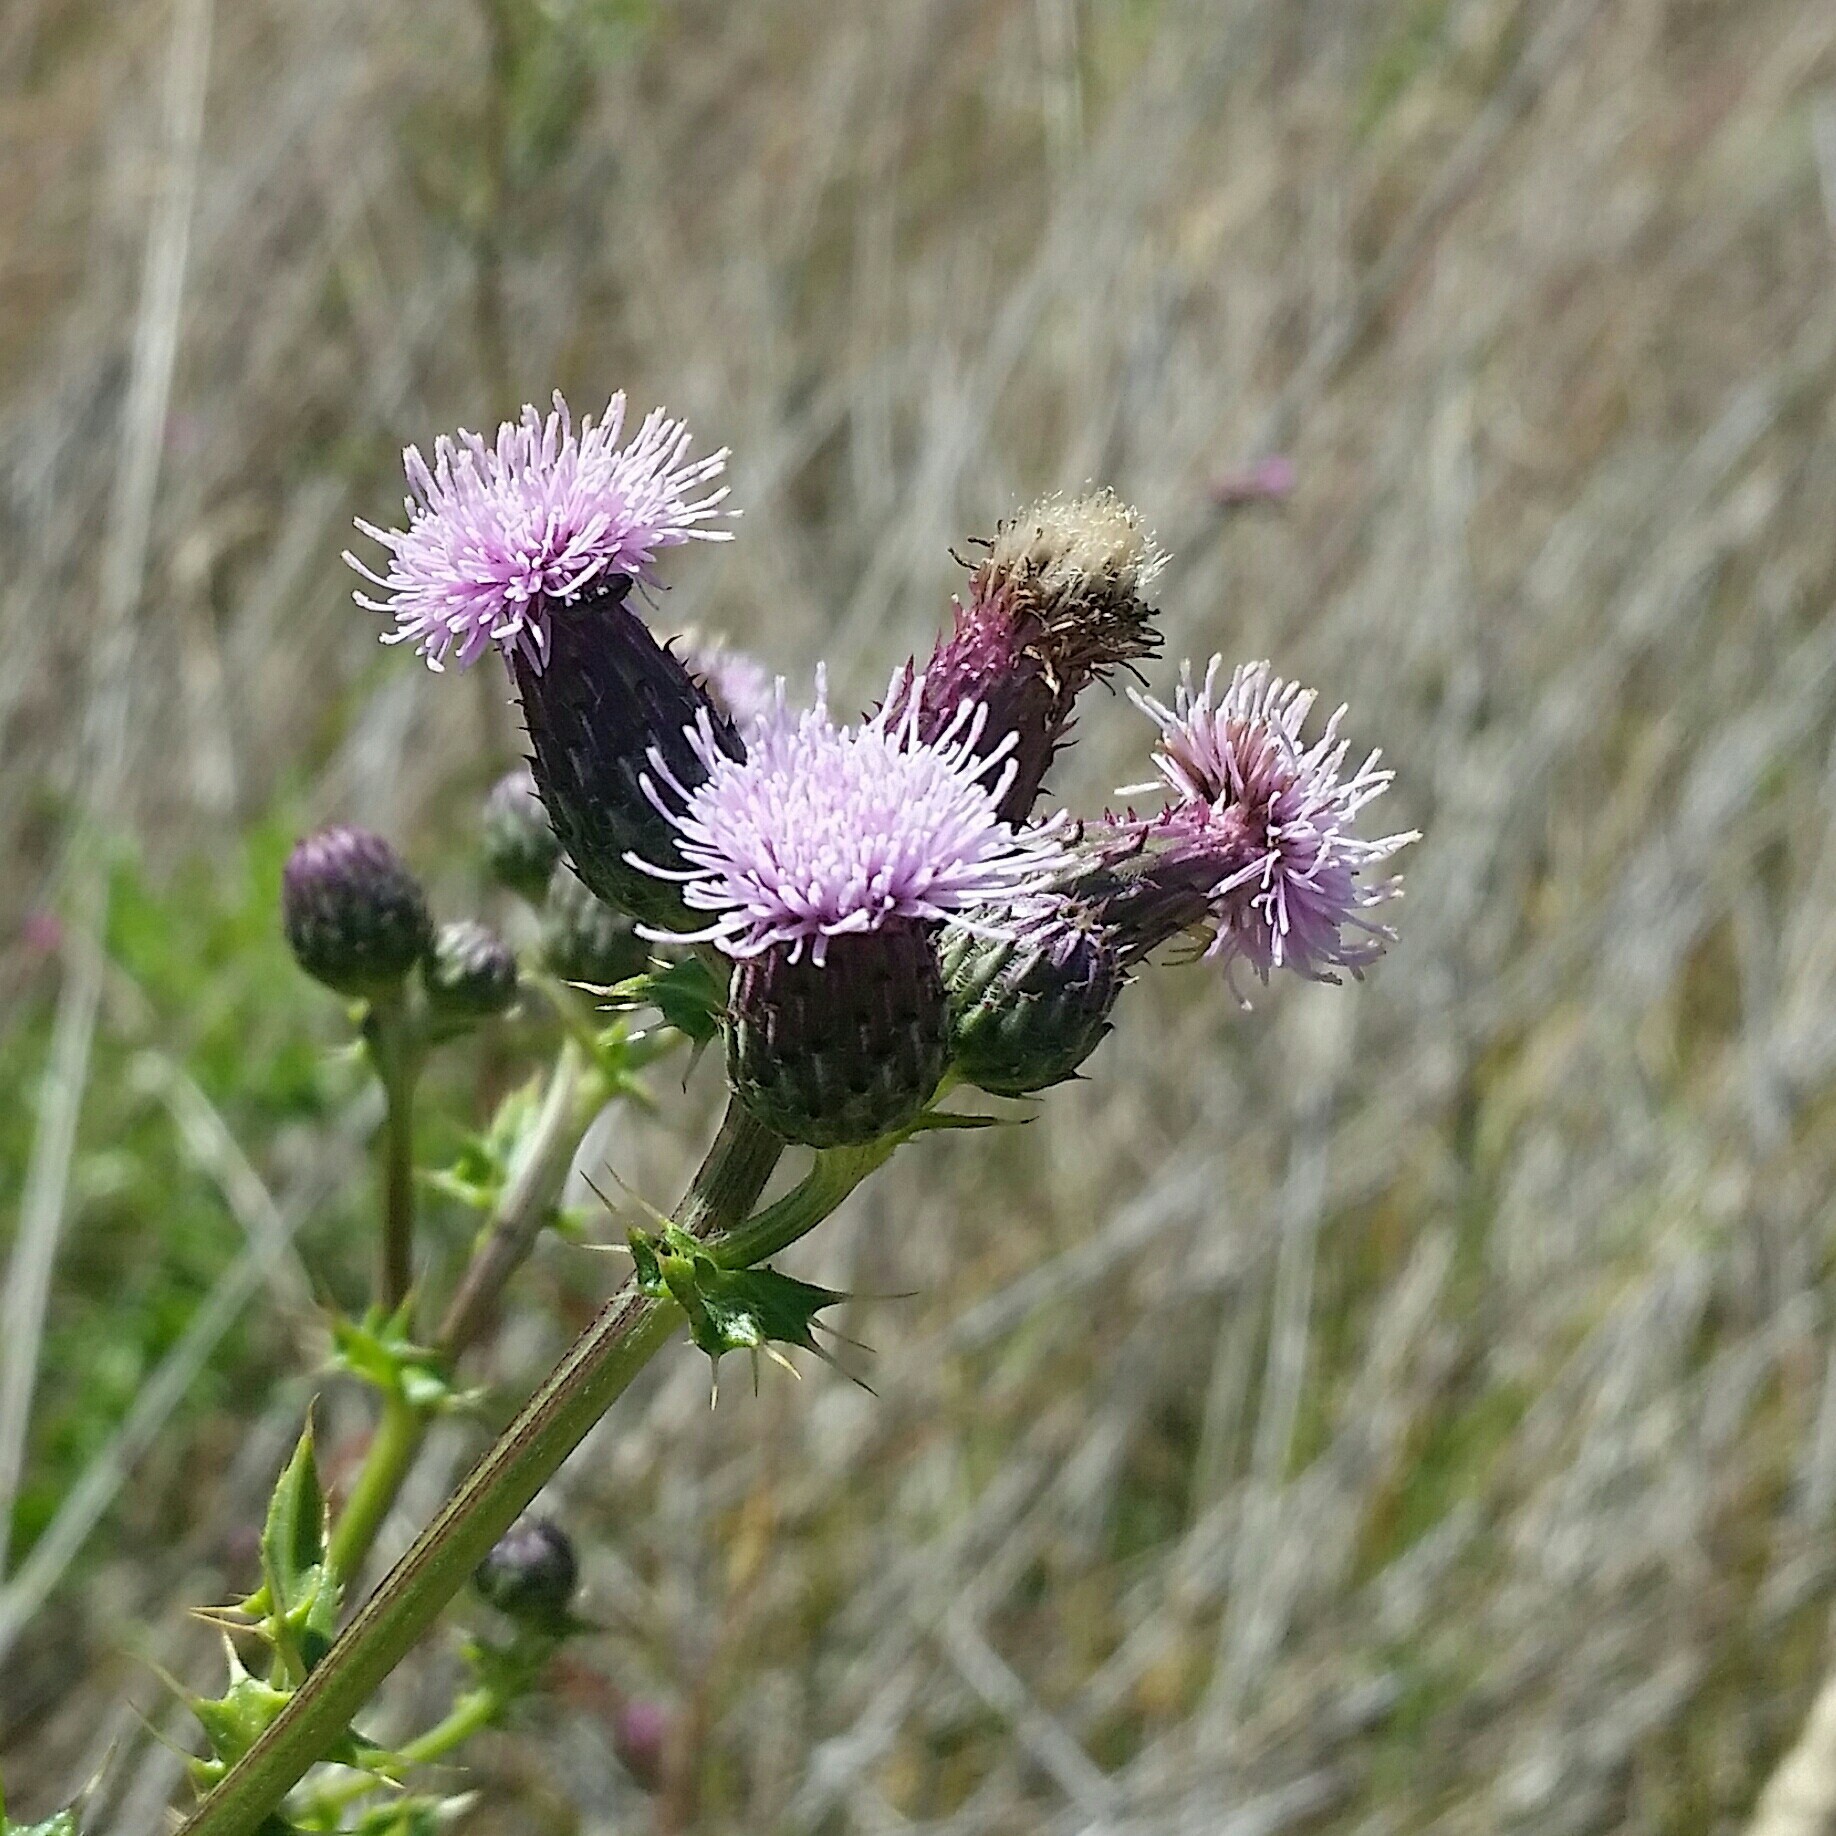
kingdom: Plantae
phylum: Tracheophyta
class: Magnoliopsida
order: Asterales
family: Asteraceae
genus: Cirsium
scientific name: Cirsium arvense
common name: Creeping thistle
